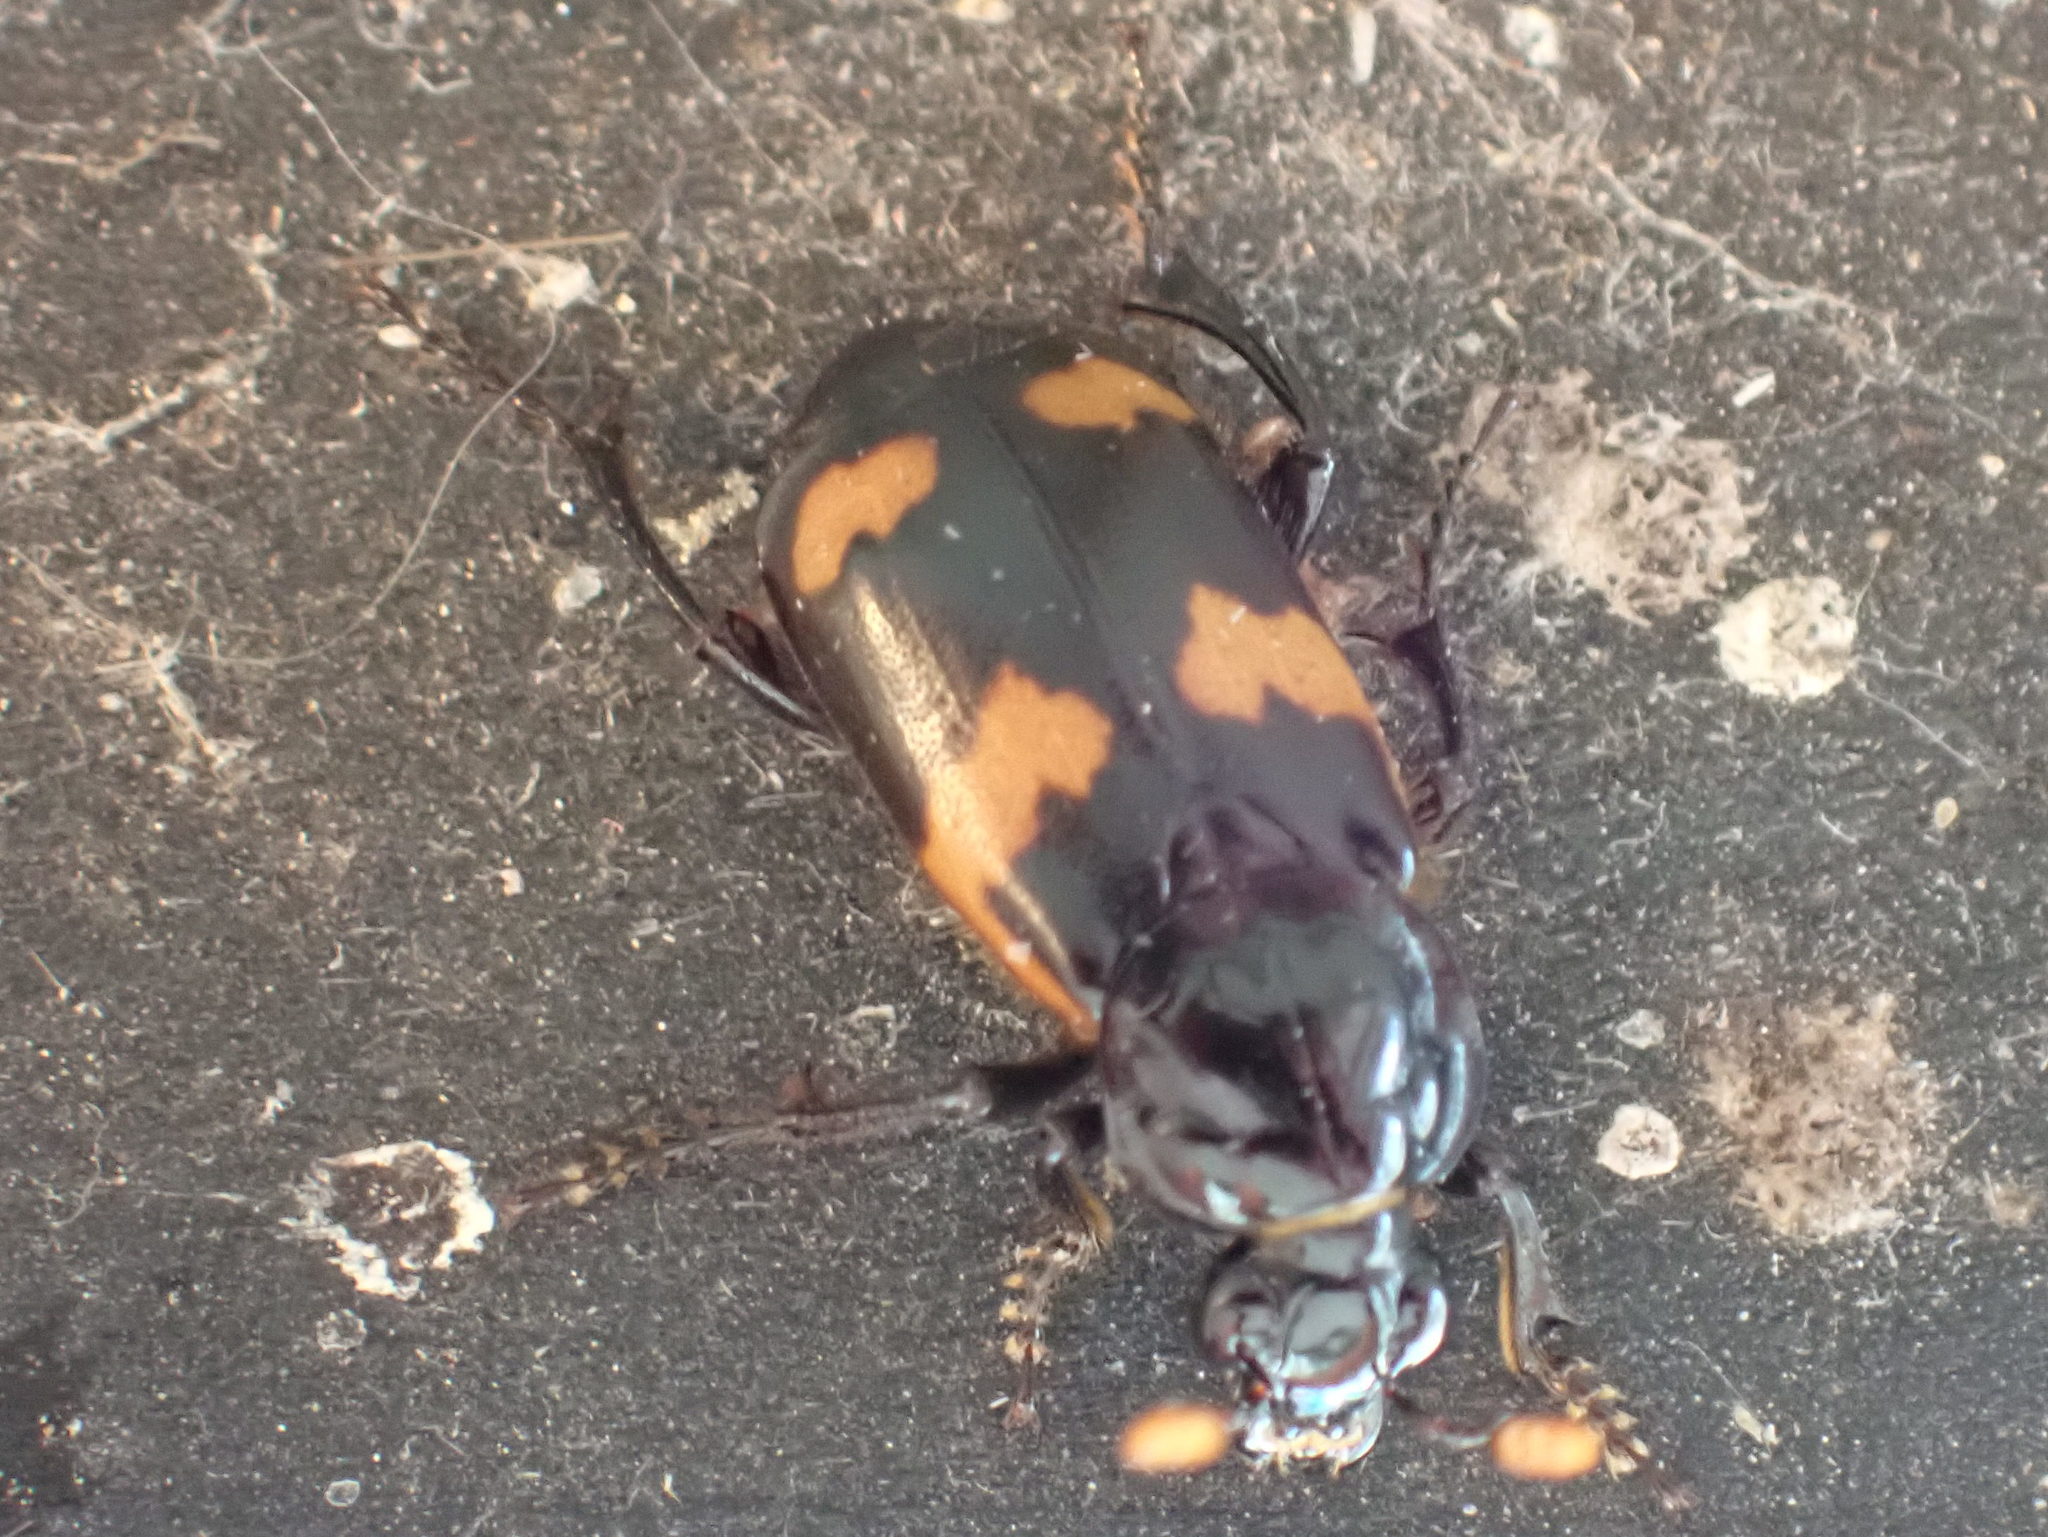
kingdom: Animalia
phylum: Arthropoda
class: Insecta
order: Coleoptera
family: Staphylinidae
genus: Nicrophorus
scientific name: Nicrophorus sayi
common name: Say's burying beetle
